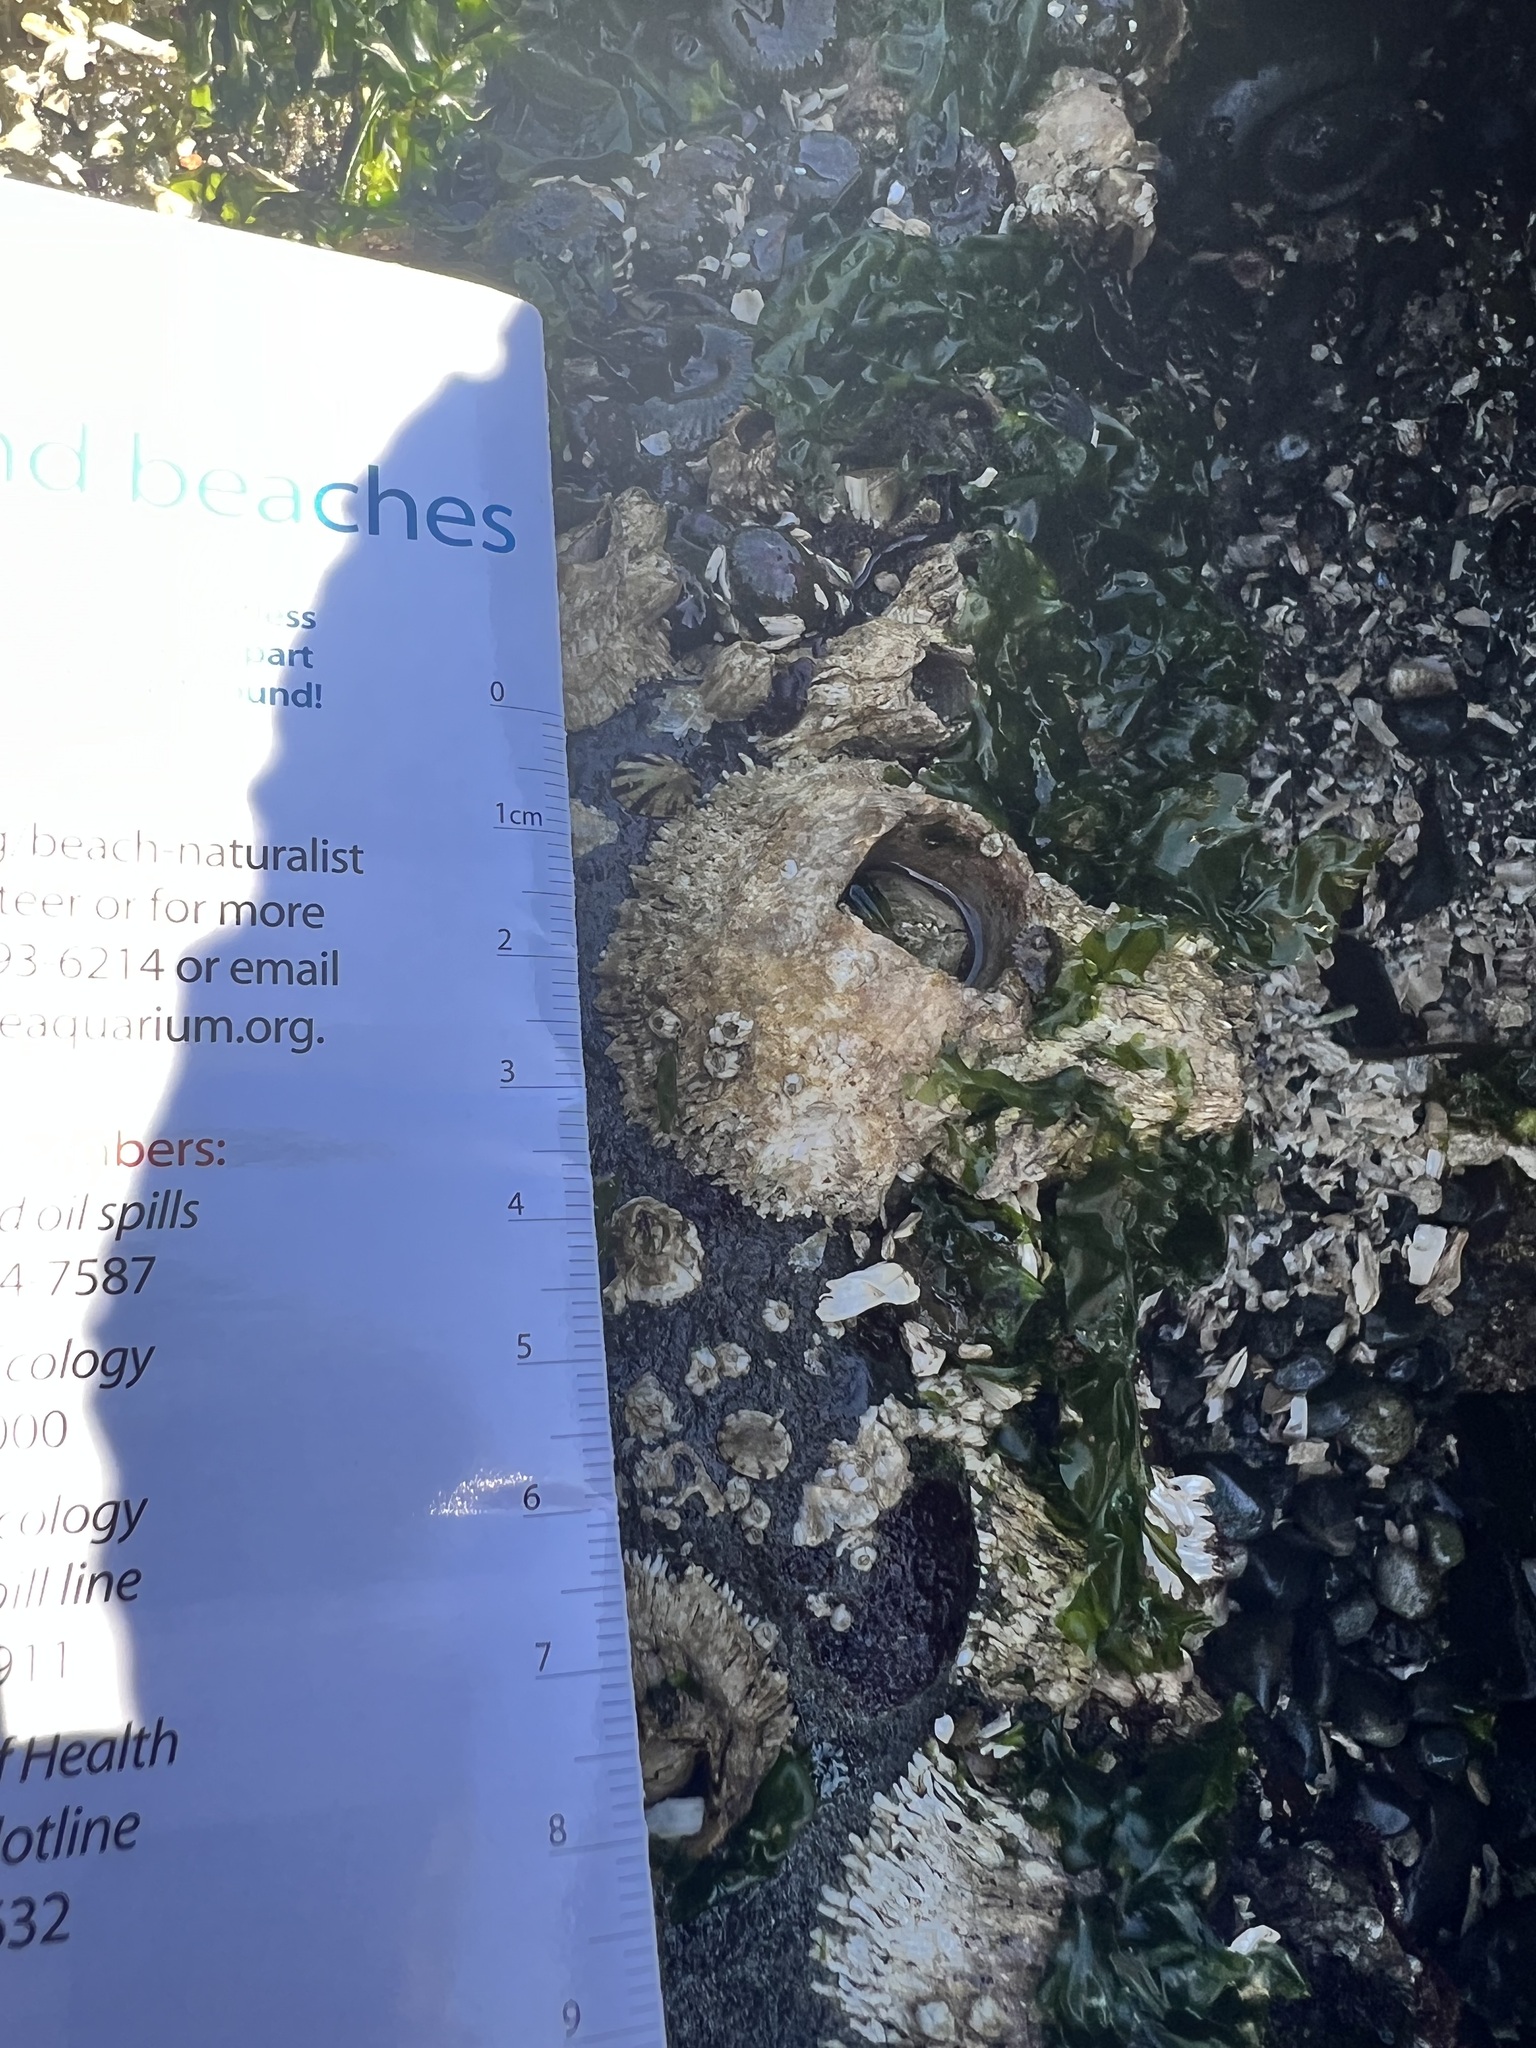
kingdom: Animalia
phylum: Arthropoda
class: Maxillopoda
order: Sessilia
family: Archaeobalanidae
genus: Semibalanus
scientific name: Semibalanus cariosus
